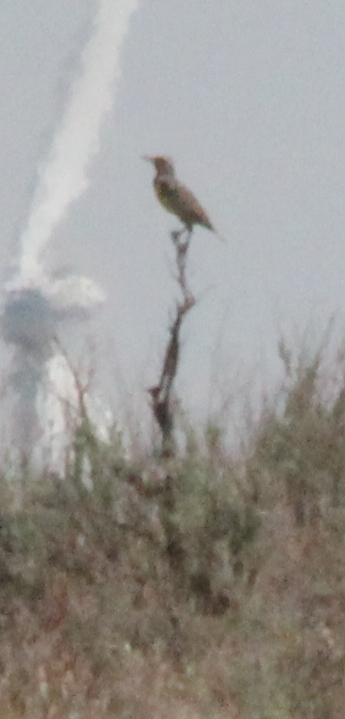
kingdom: Animalia
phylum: Chordata
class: Aves
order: Passeriformes
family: Icteridae
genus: Sturnella
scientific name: Sturnella neglecta
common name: Western meadowlark
